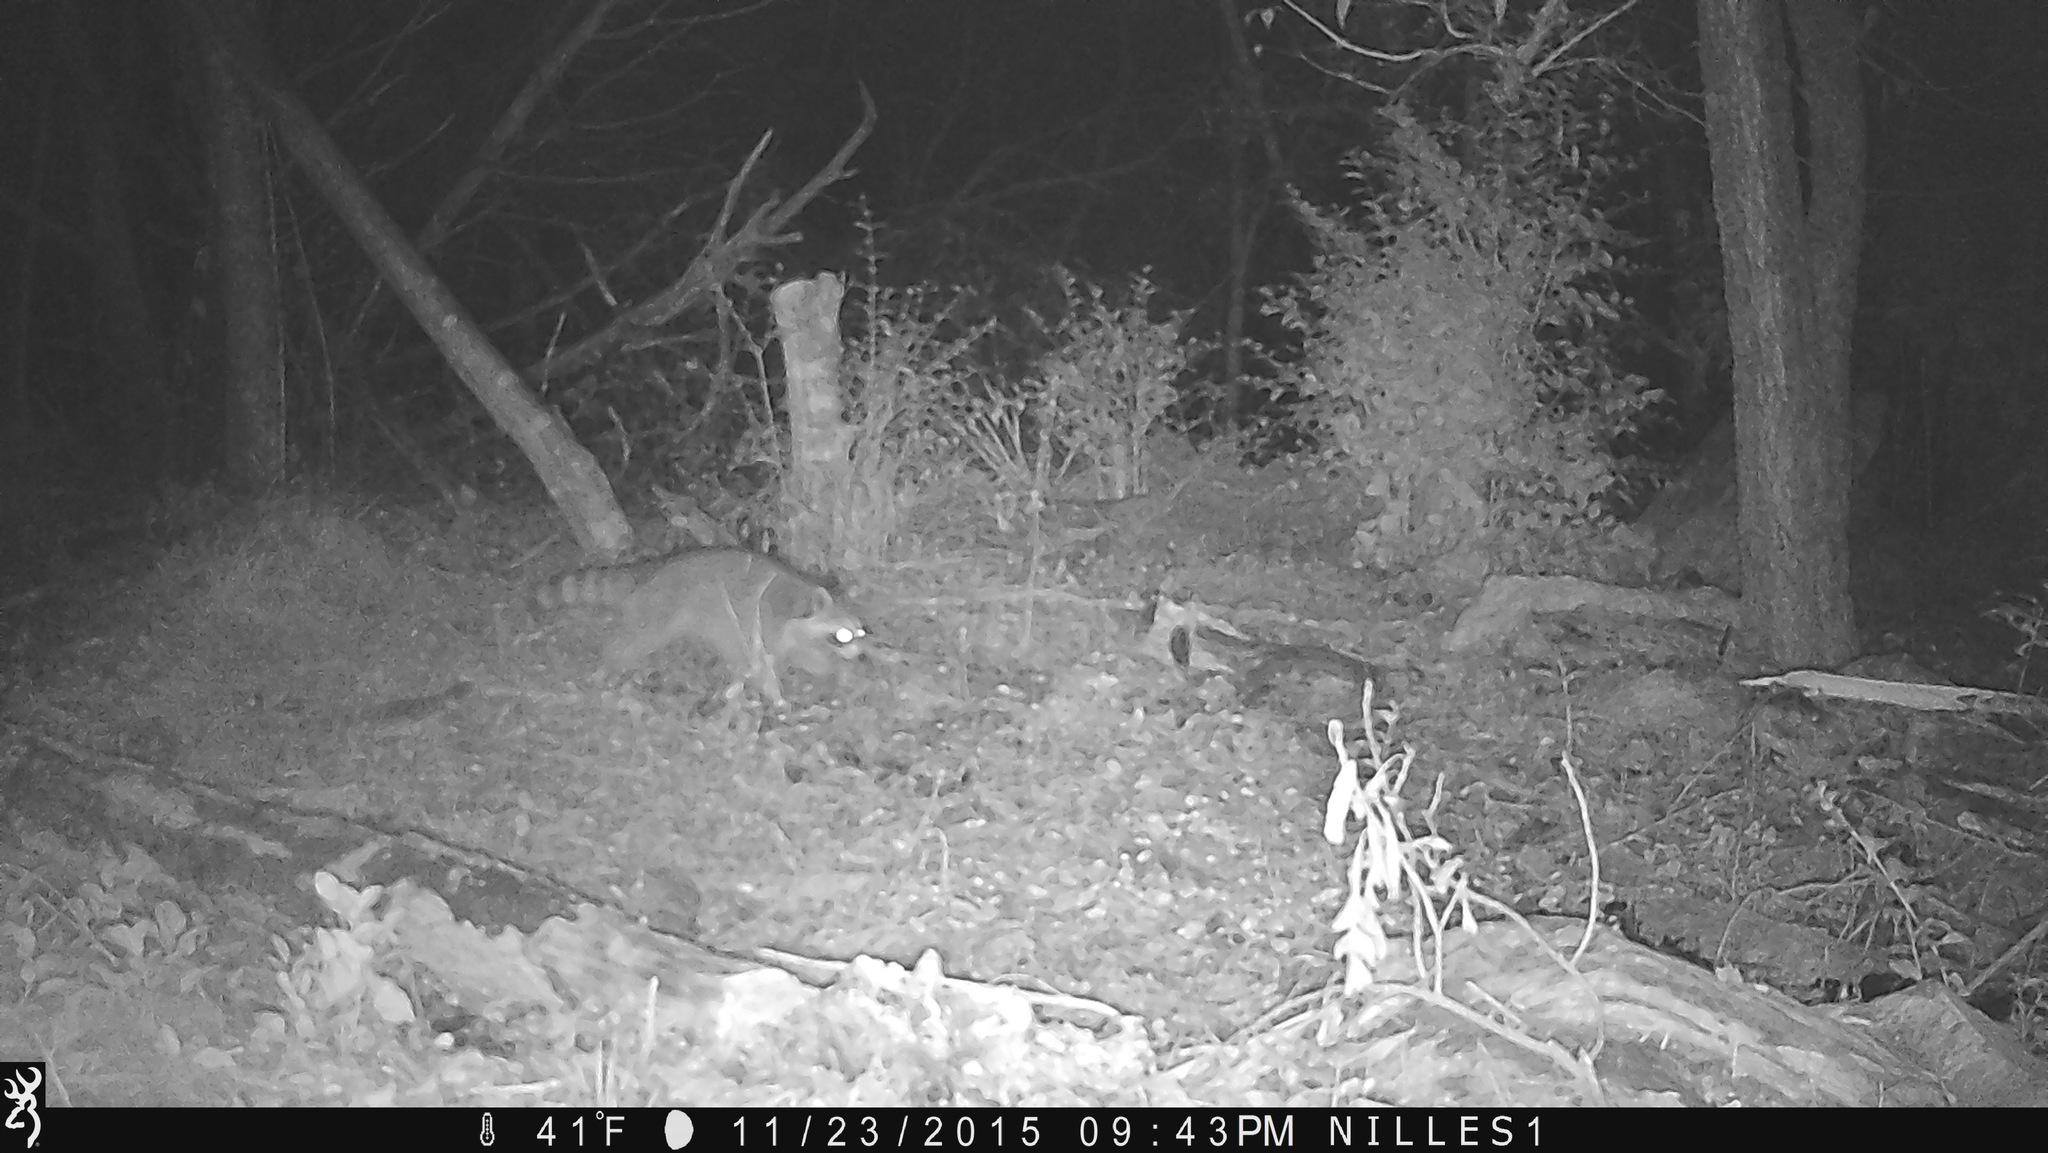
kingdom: Animalia
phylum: Chordata
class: Mammalia
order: Carnivora
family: Procyonidae
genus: Procyon
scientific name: Procyon lotor
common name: Raccoon
